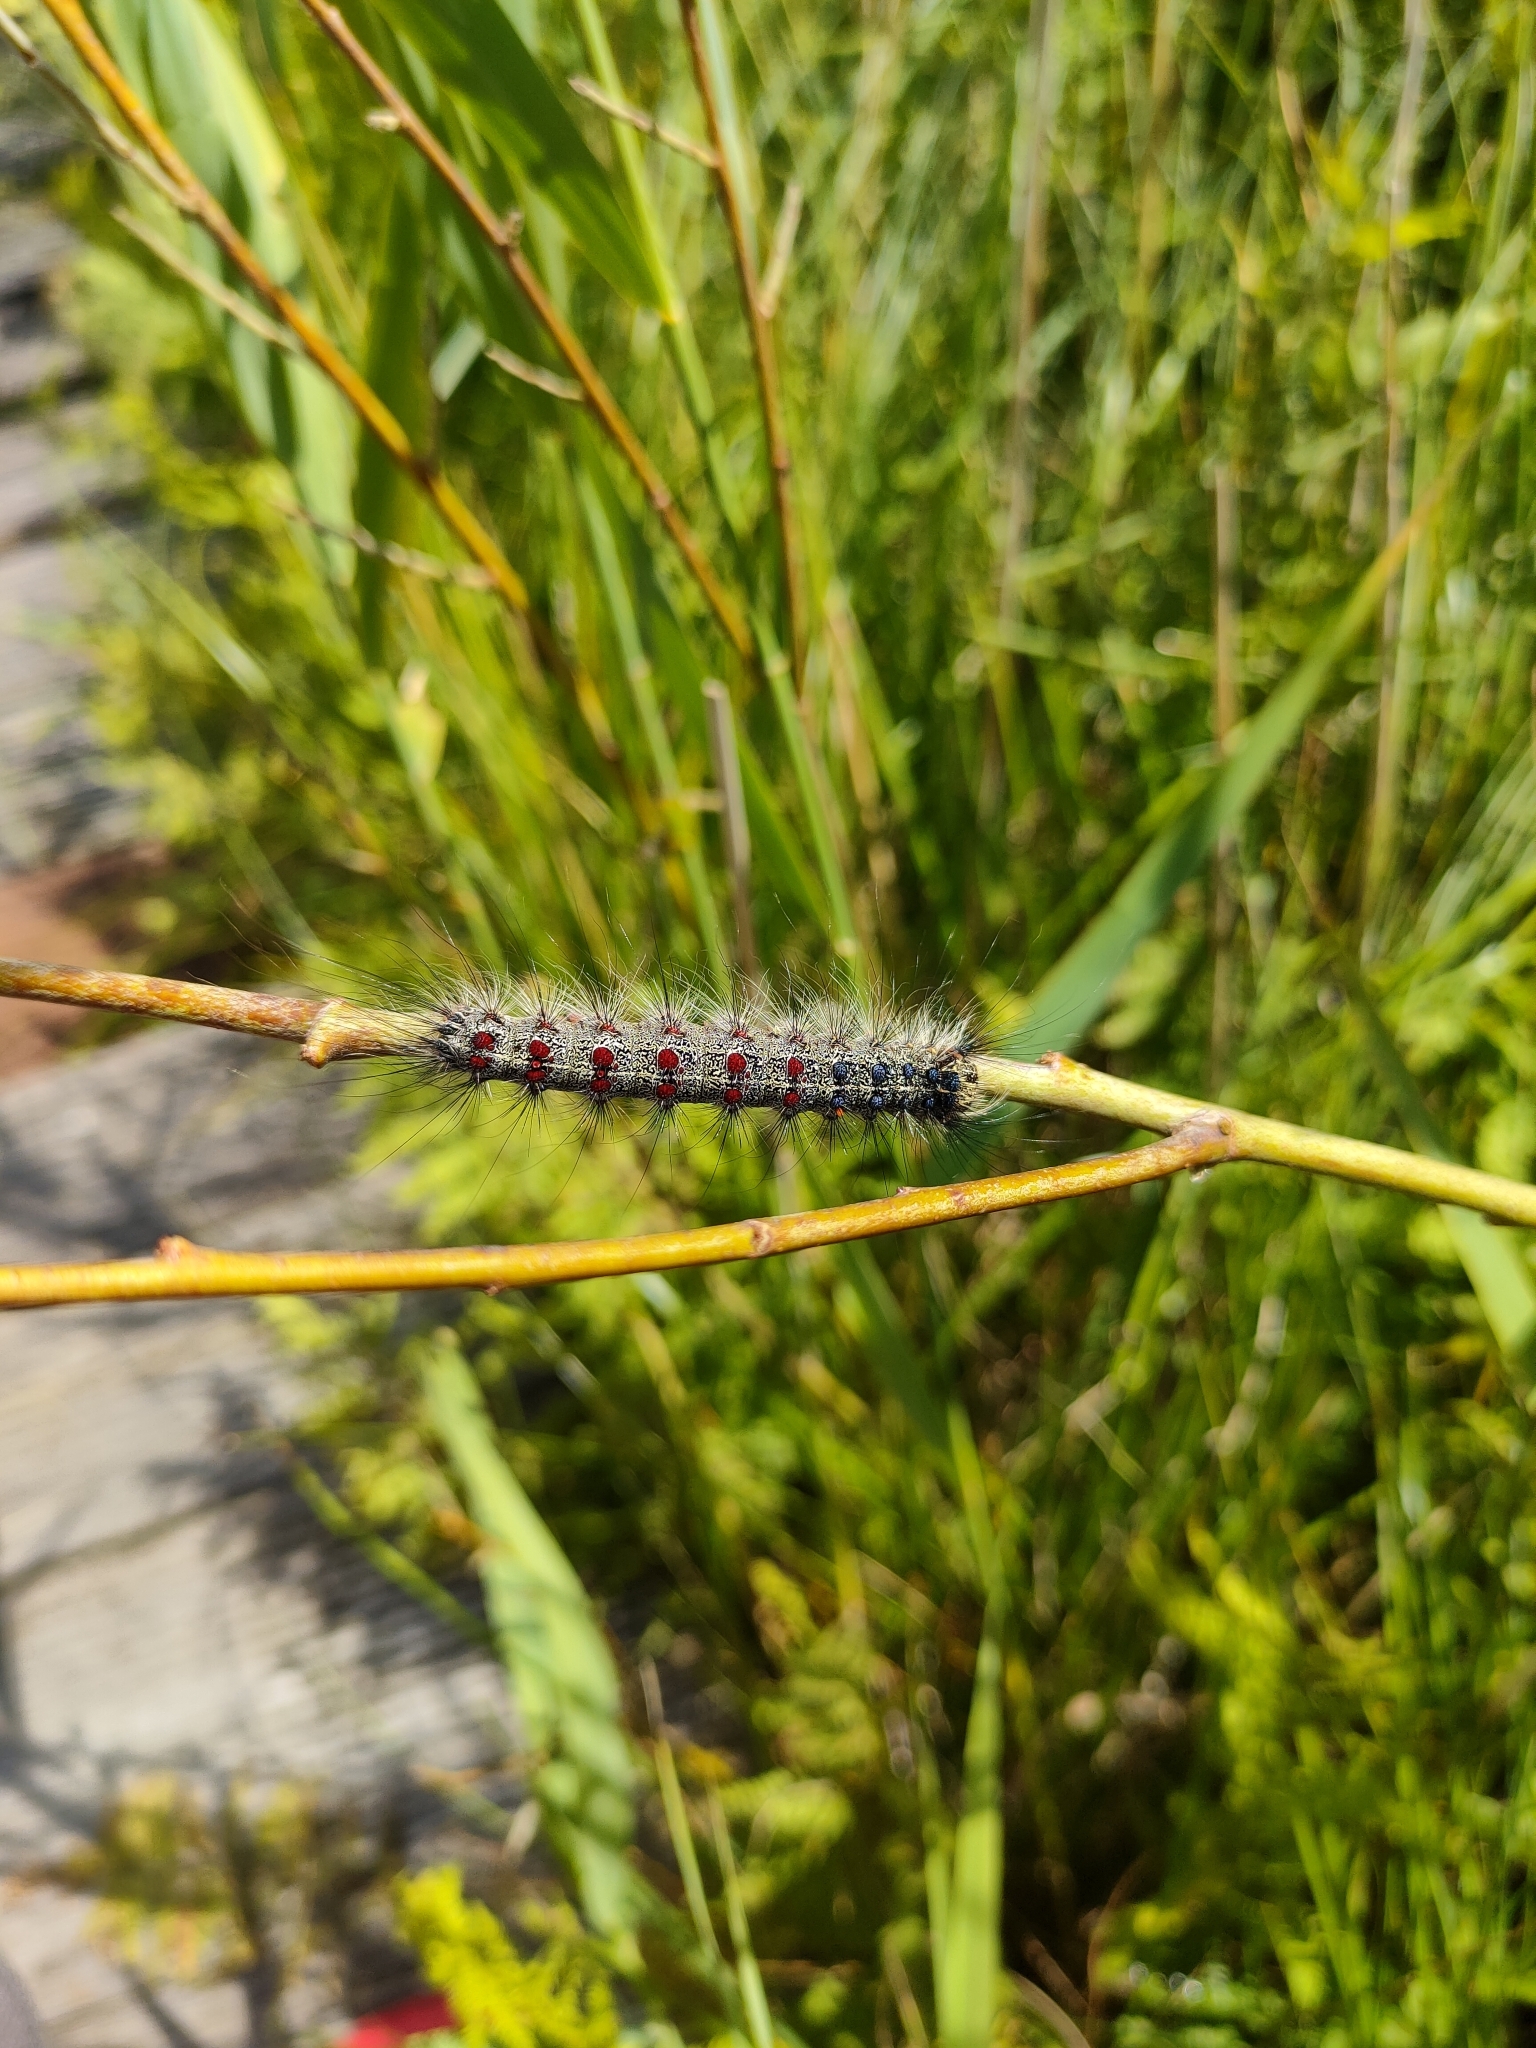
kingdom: Animalia
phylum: Arthropoda
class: Insecta
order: Lepidoptera
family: Erebidae
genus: Lymantria
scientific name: Lymantria dispar
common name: Gypsy moth
